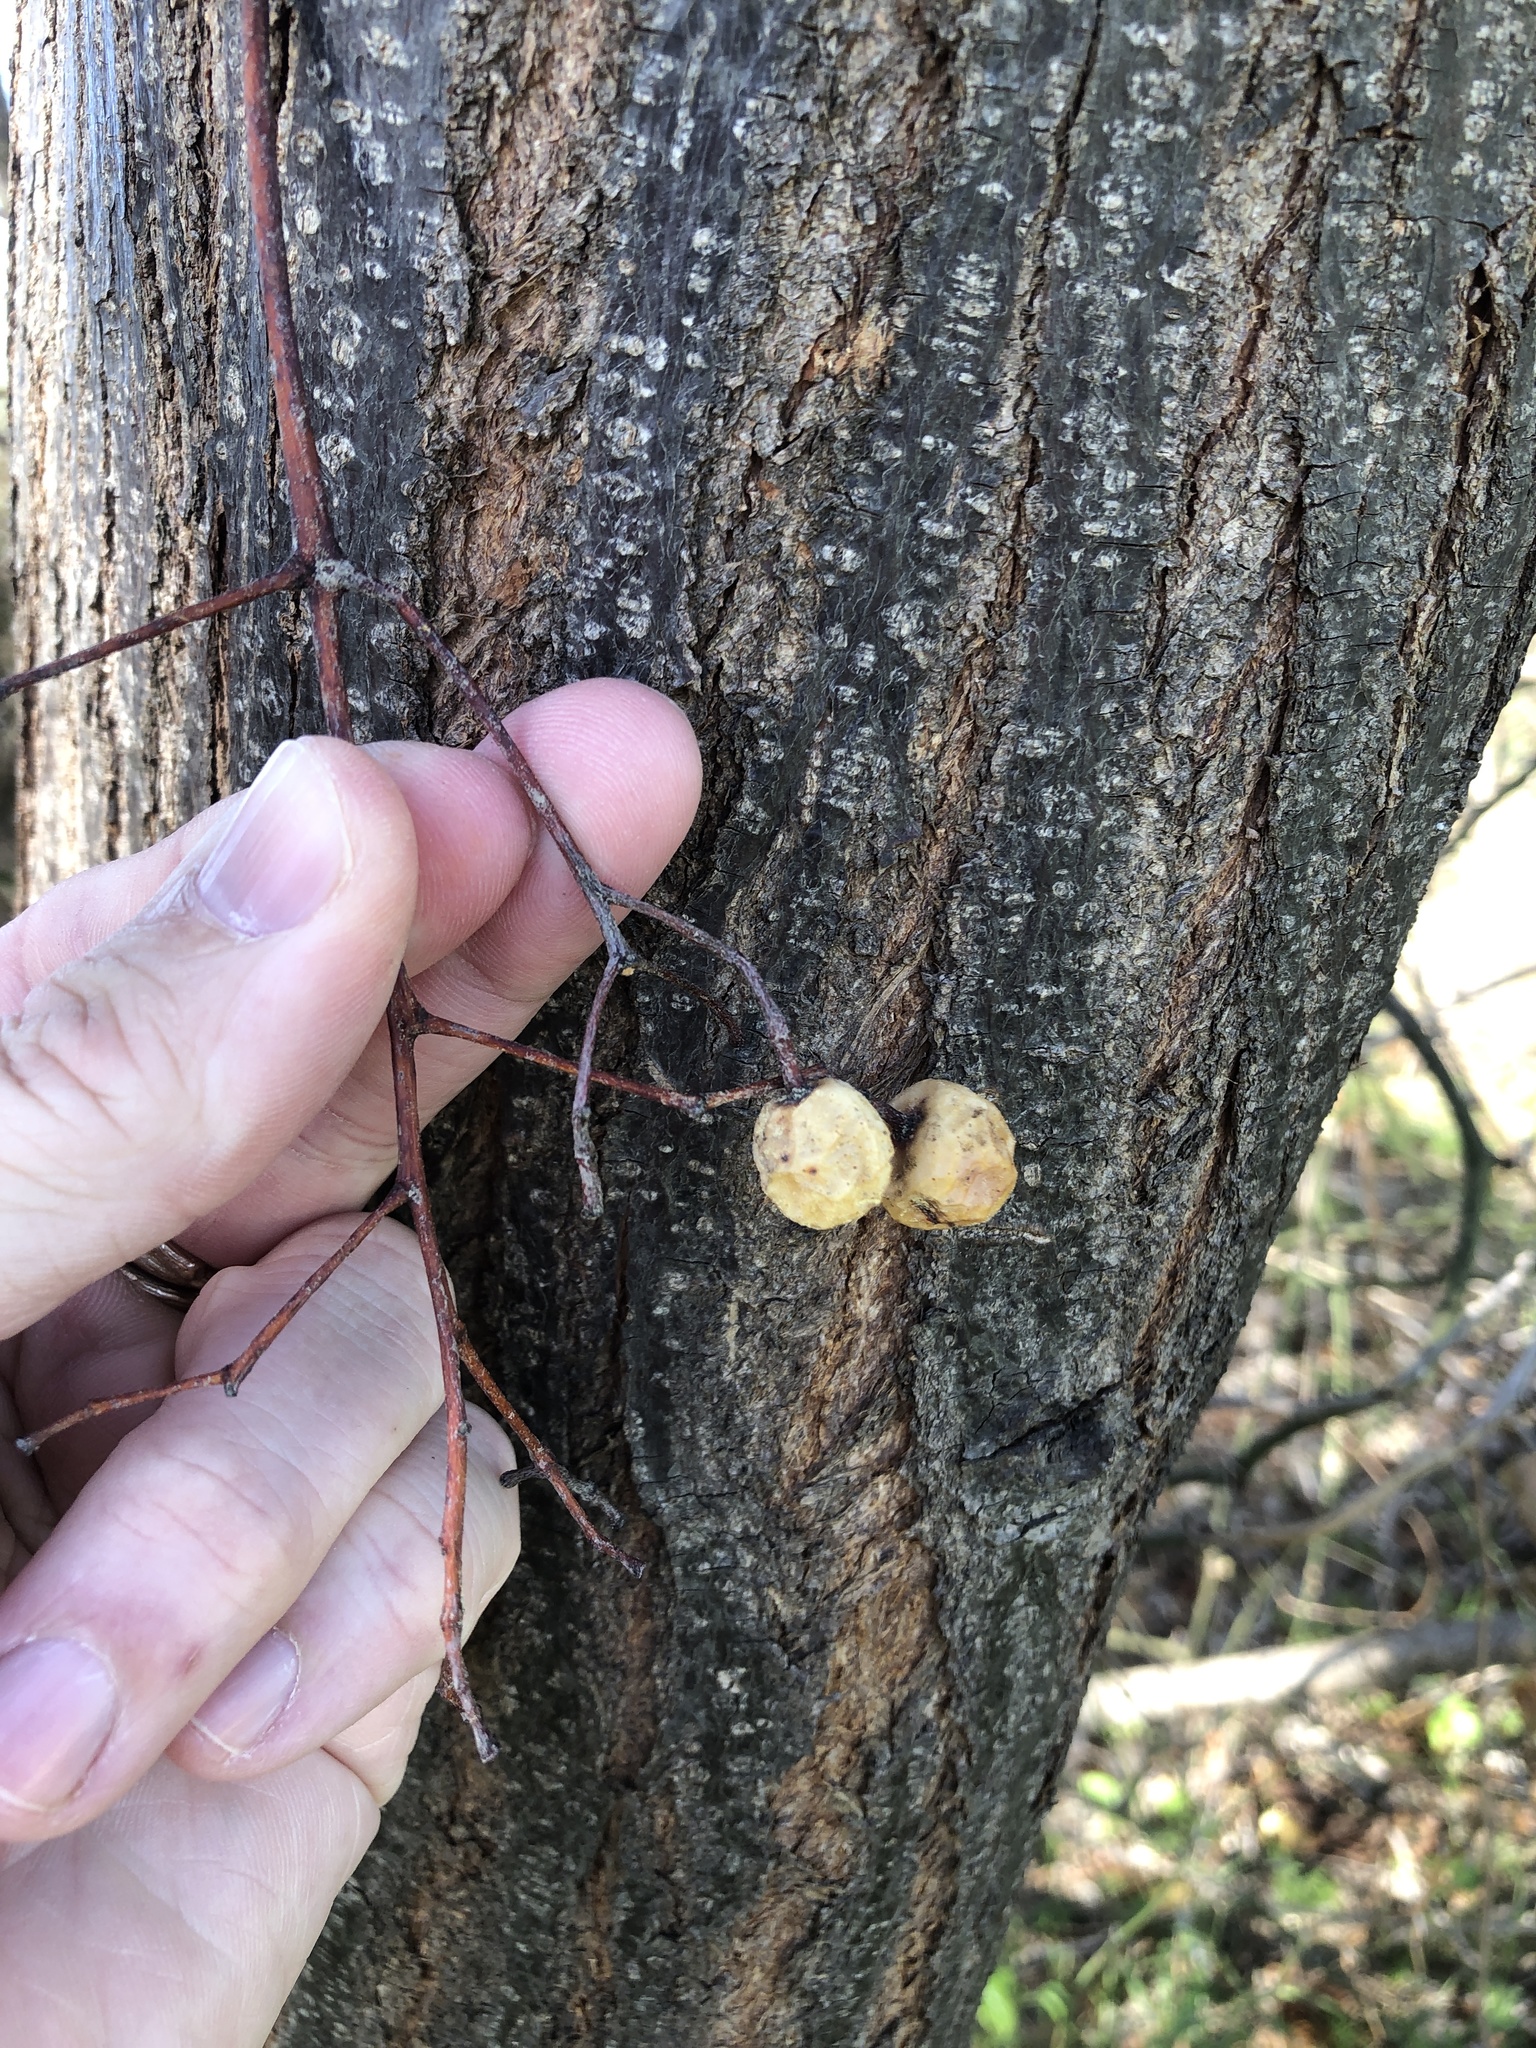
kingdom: Plantae
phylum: Tracheophyta
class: Magnoliopsida
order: Sapindales
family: Meliaceae
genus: Melia
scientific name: Melia azedarach
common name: Chinaberrytree
